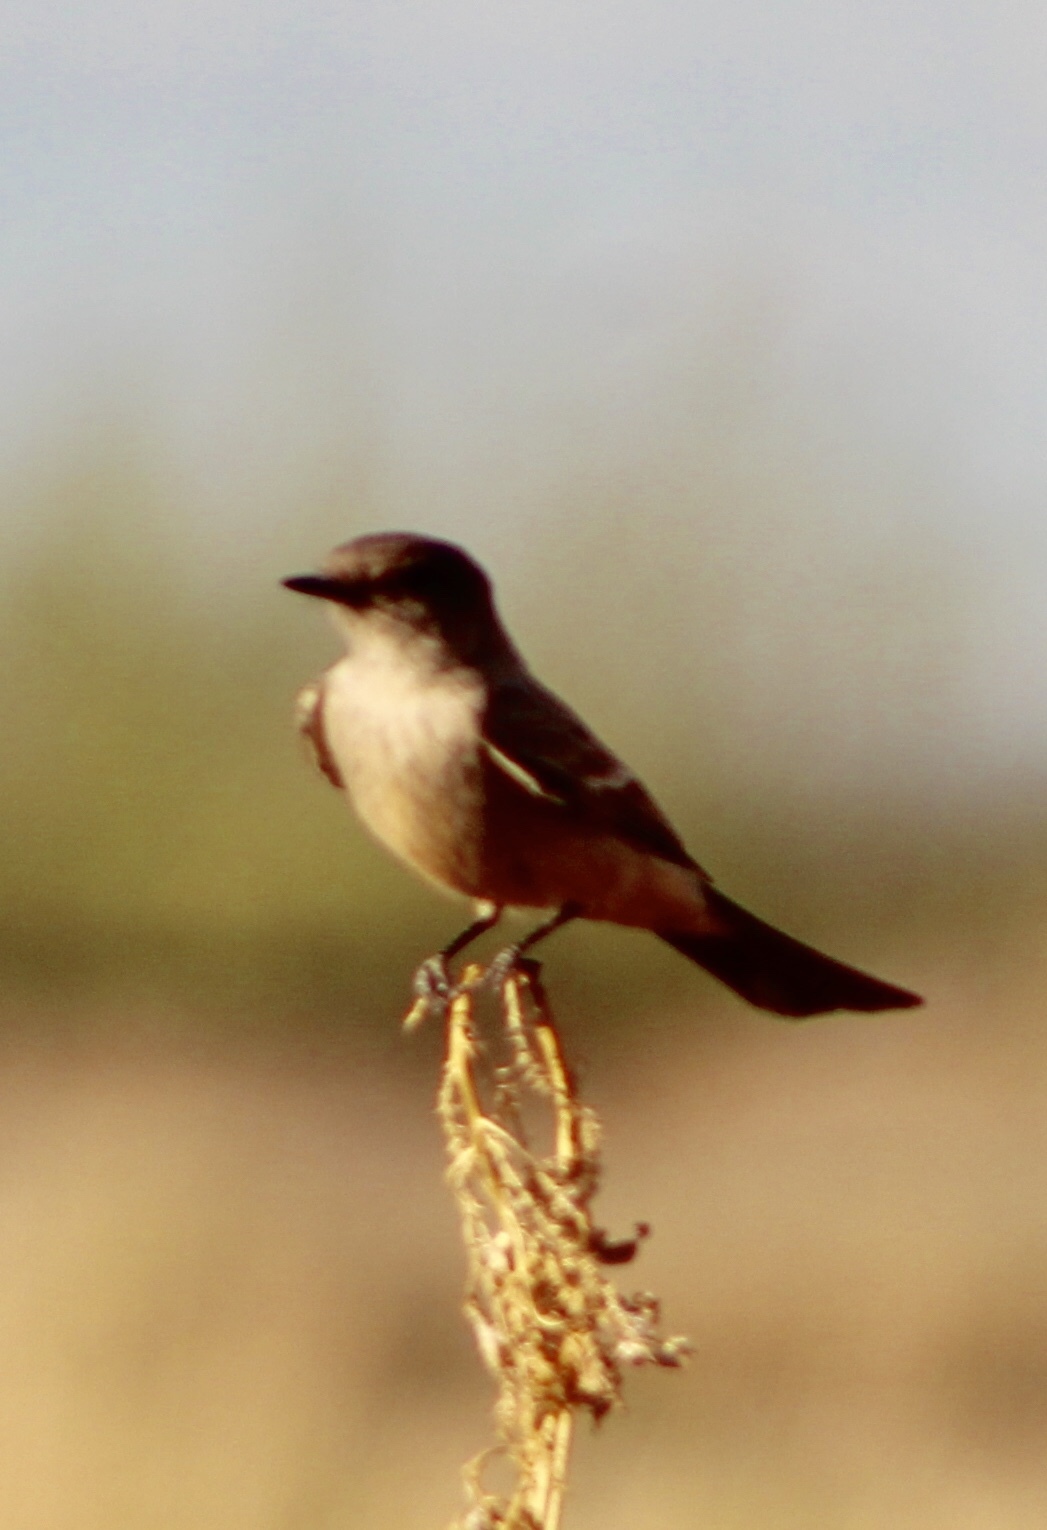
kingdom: Animalia
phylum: Chordata
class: Aves
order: Passeriformes
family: Tyrannidae
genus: Sayornis
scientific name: Sayornis saya
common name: Say's phoebe
